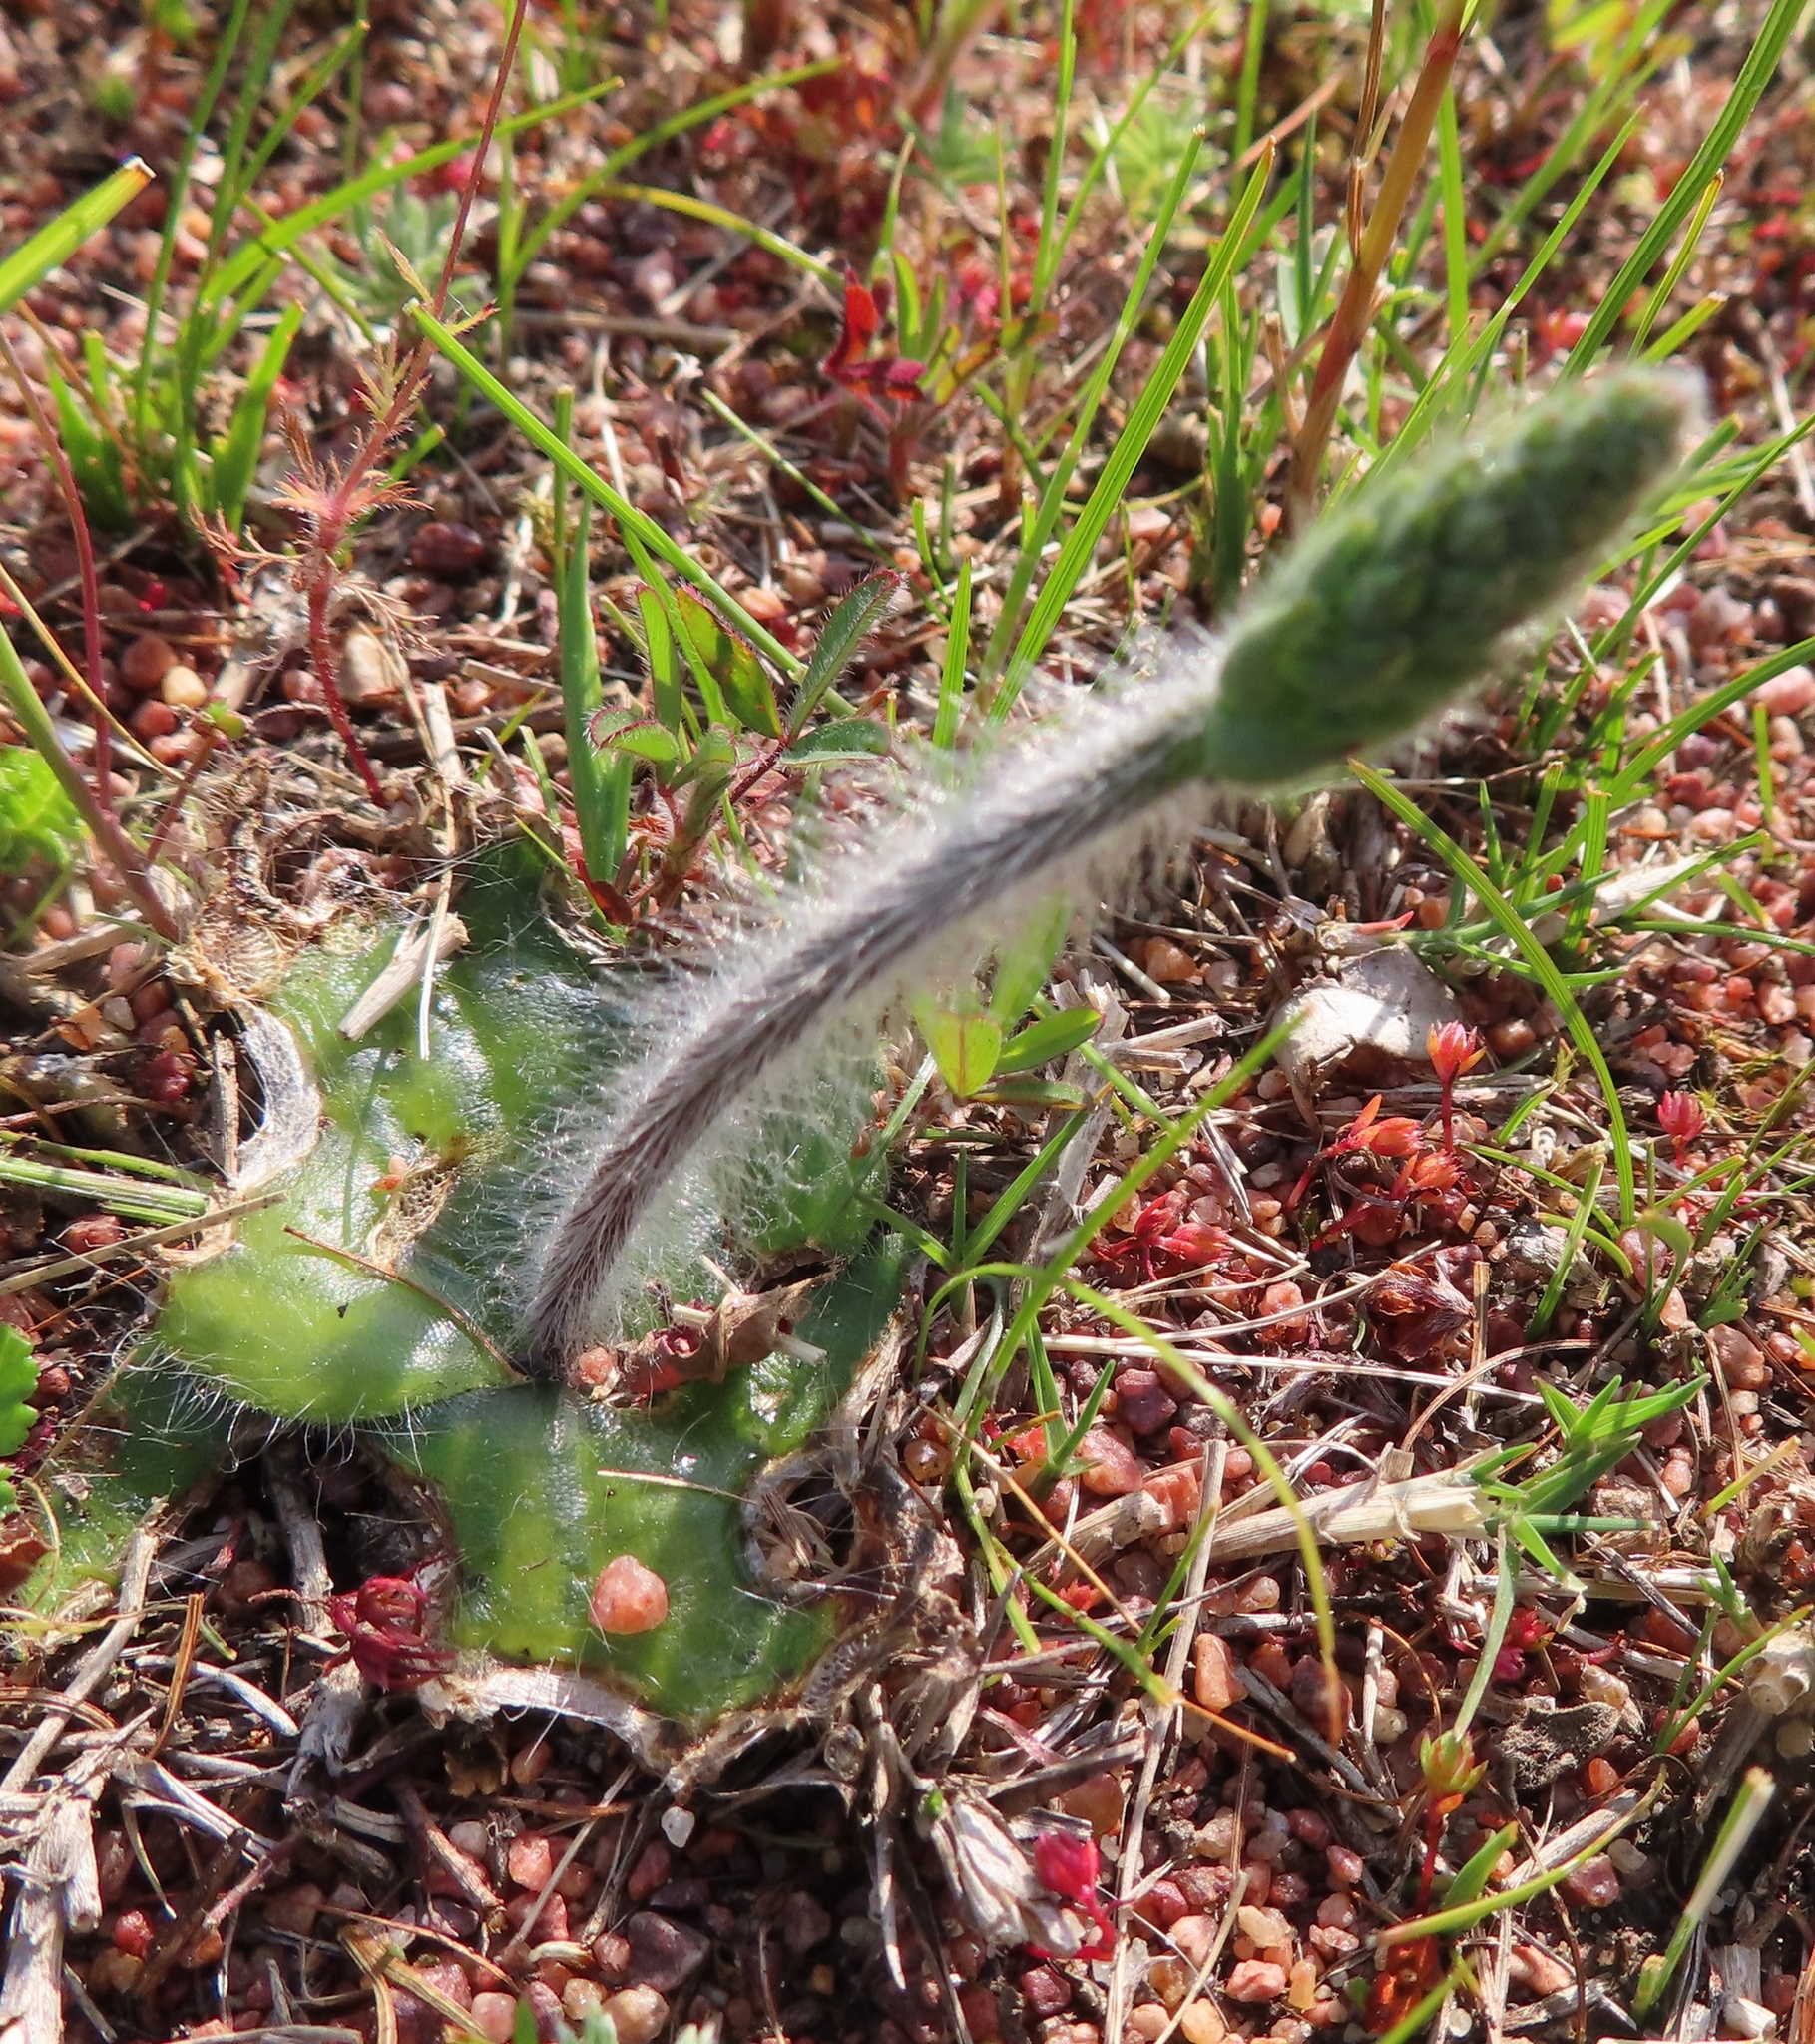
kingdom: Plantae
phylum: Tracheophyta
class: Liliopsida
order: Asparagales
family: Orchidaceae
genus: Holothrix
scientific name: Holothrix villosa
